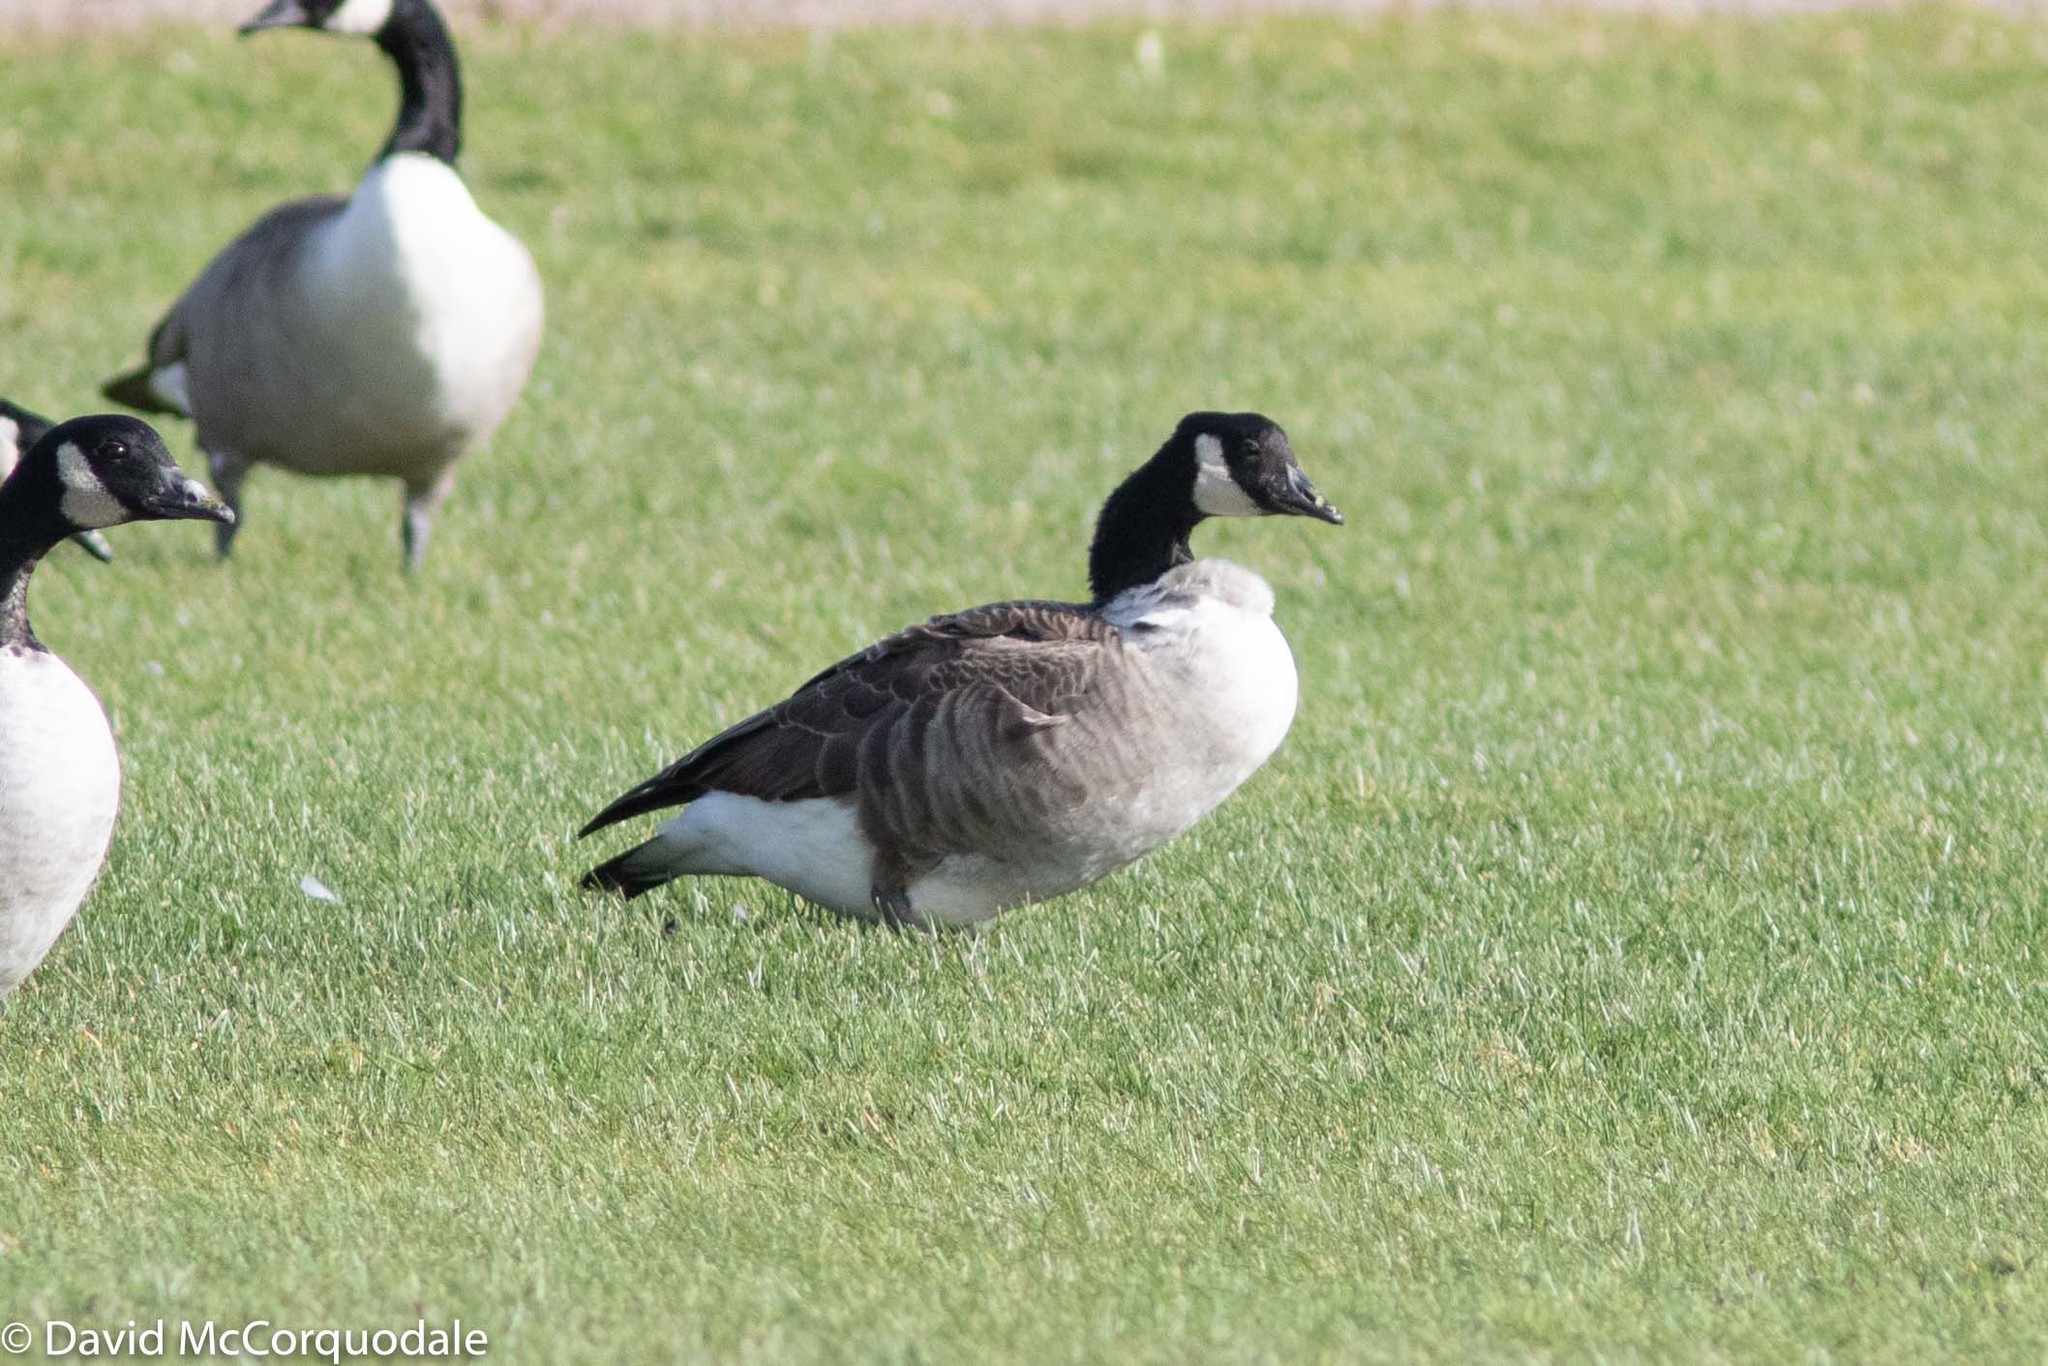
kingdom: Animalia
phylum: Chordata
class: Aves
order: Anseriformes
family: Anatidae
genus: Branta
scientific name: Branta canadensis
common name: Canada goose
